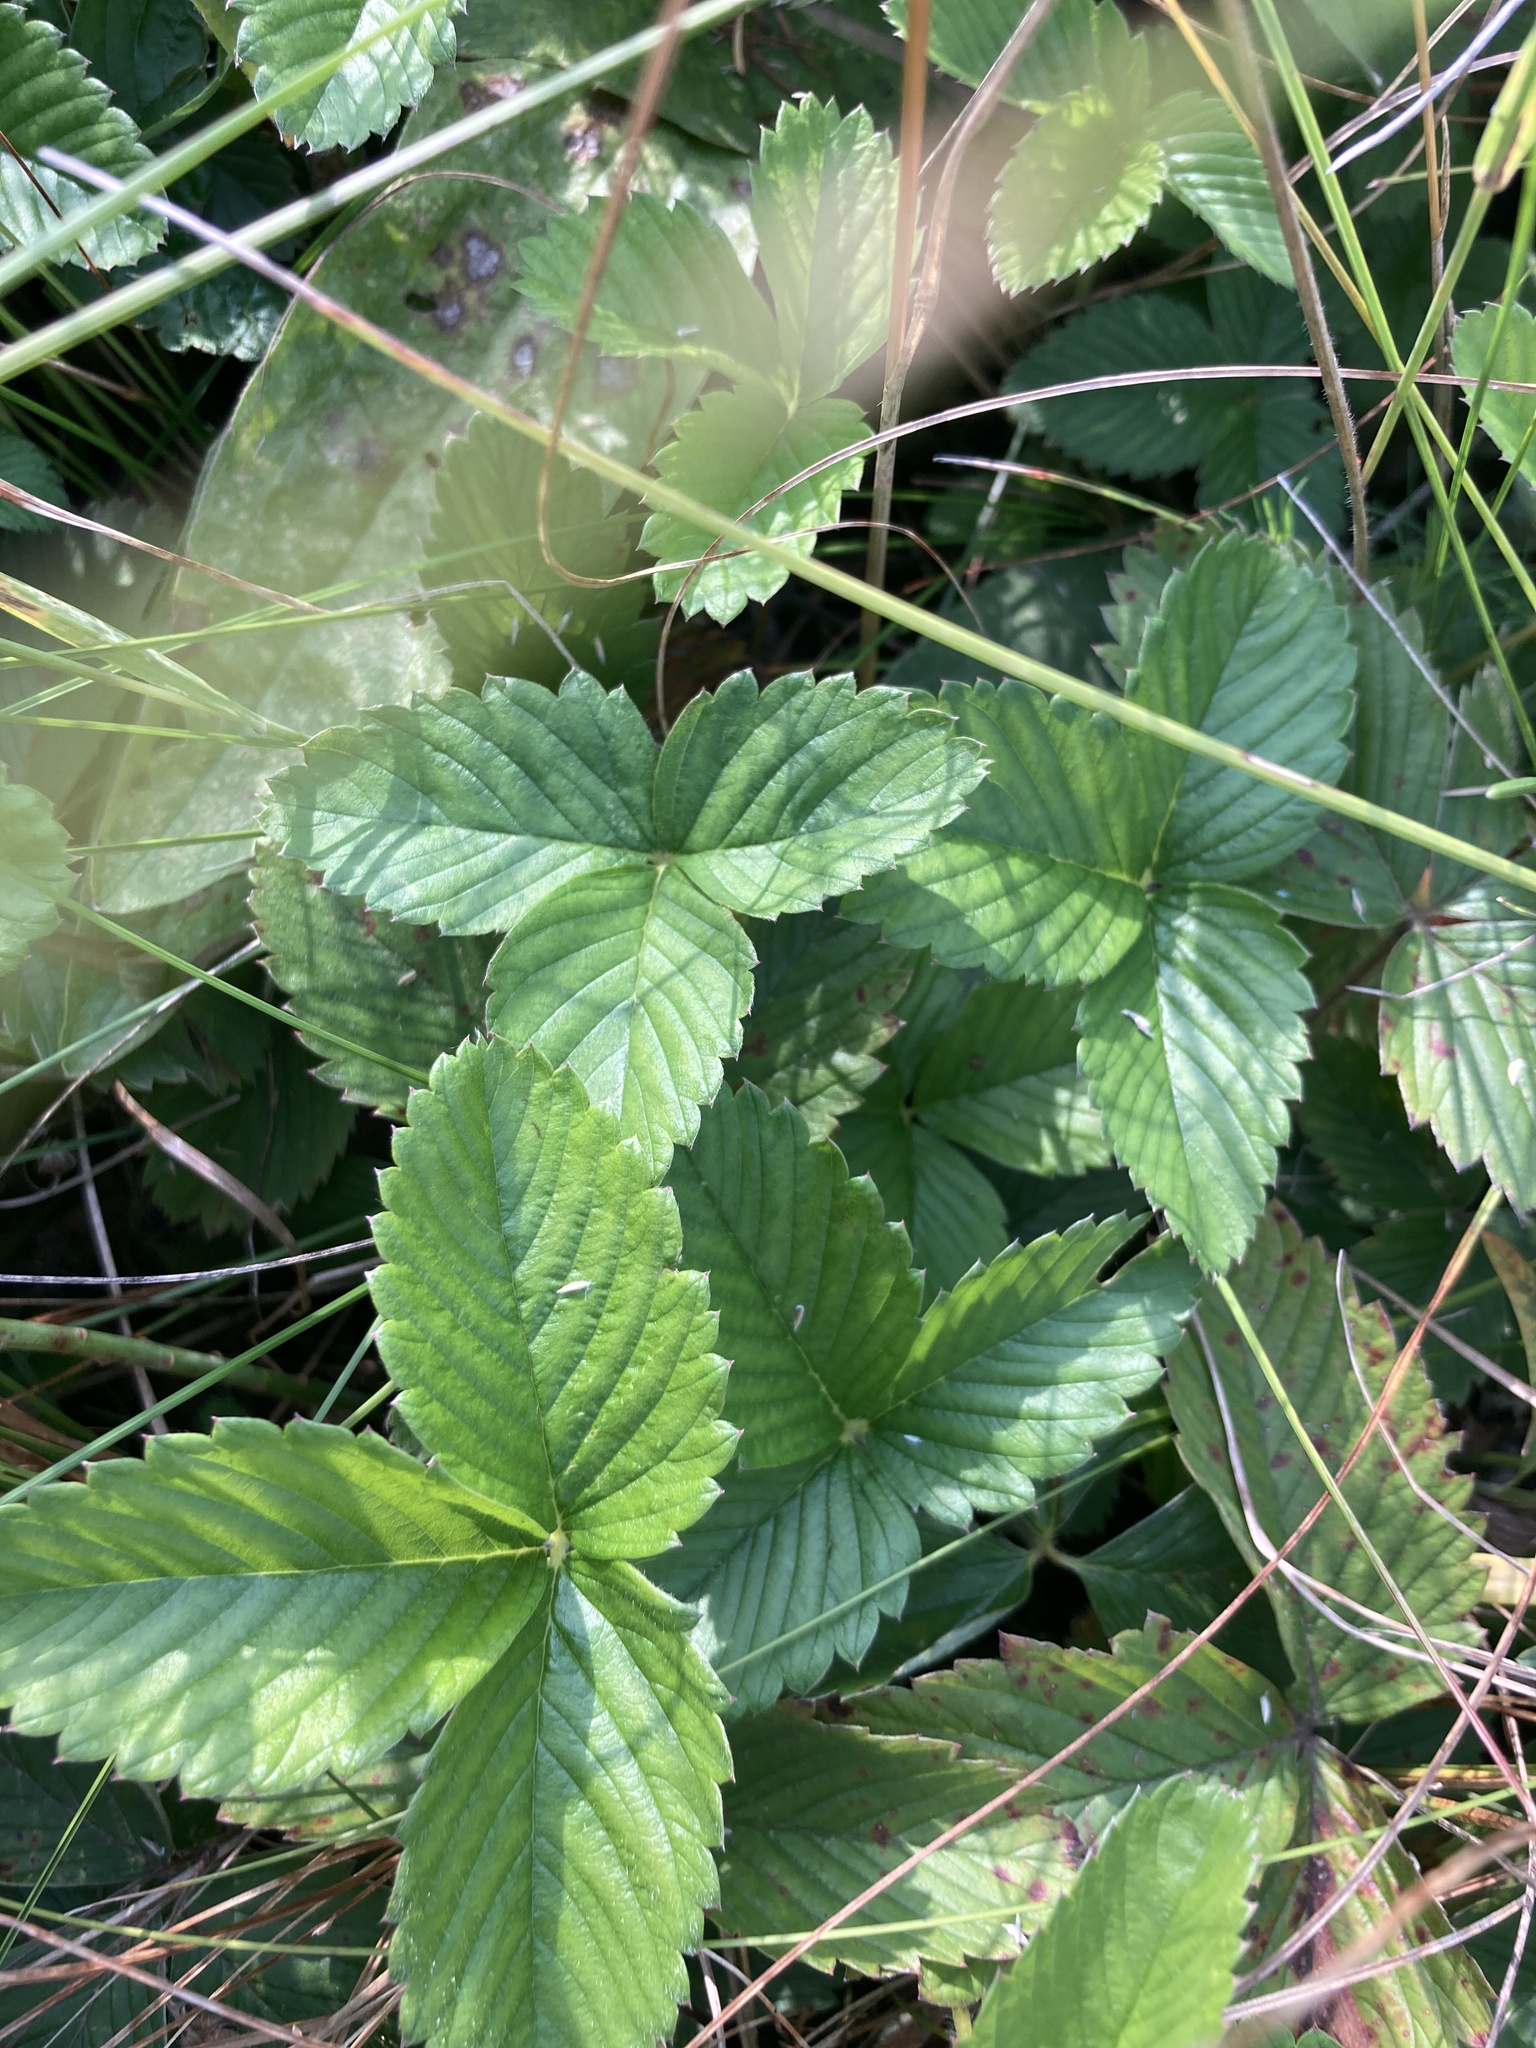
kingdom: Plantae
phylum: Tracheophyta
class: Magnoliopsida
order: Rosales
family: Rosaceae
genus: Fragaria
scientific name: Fragaria viridis
